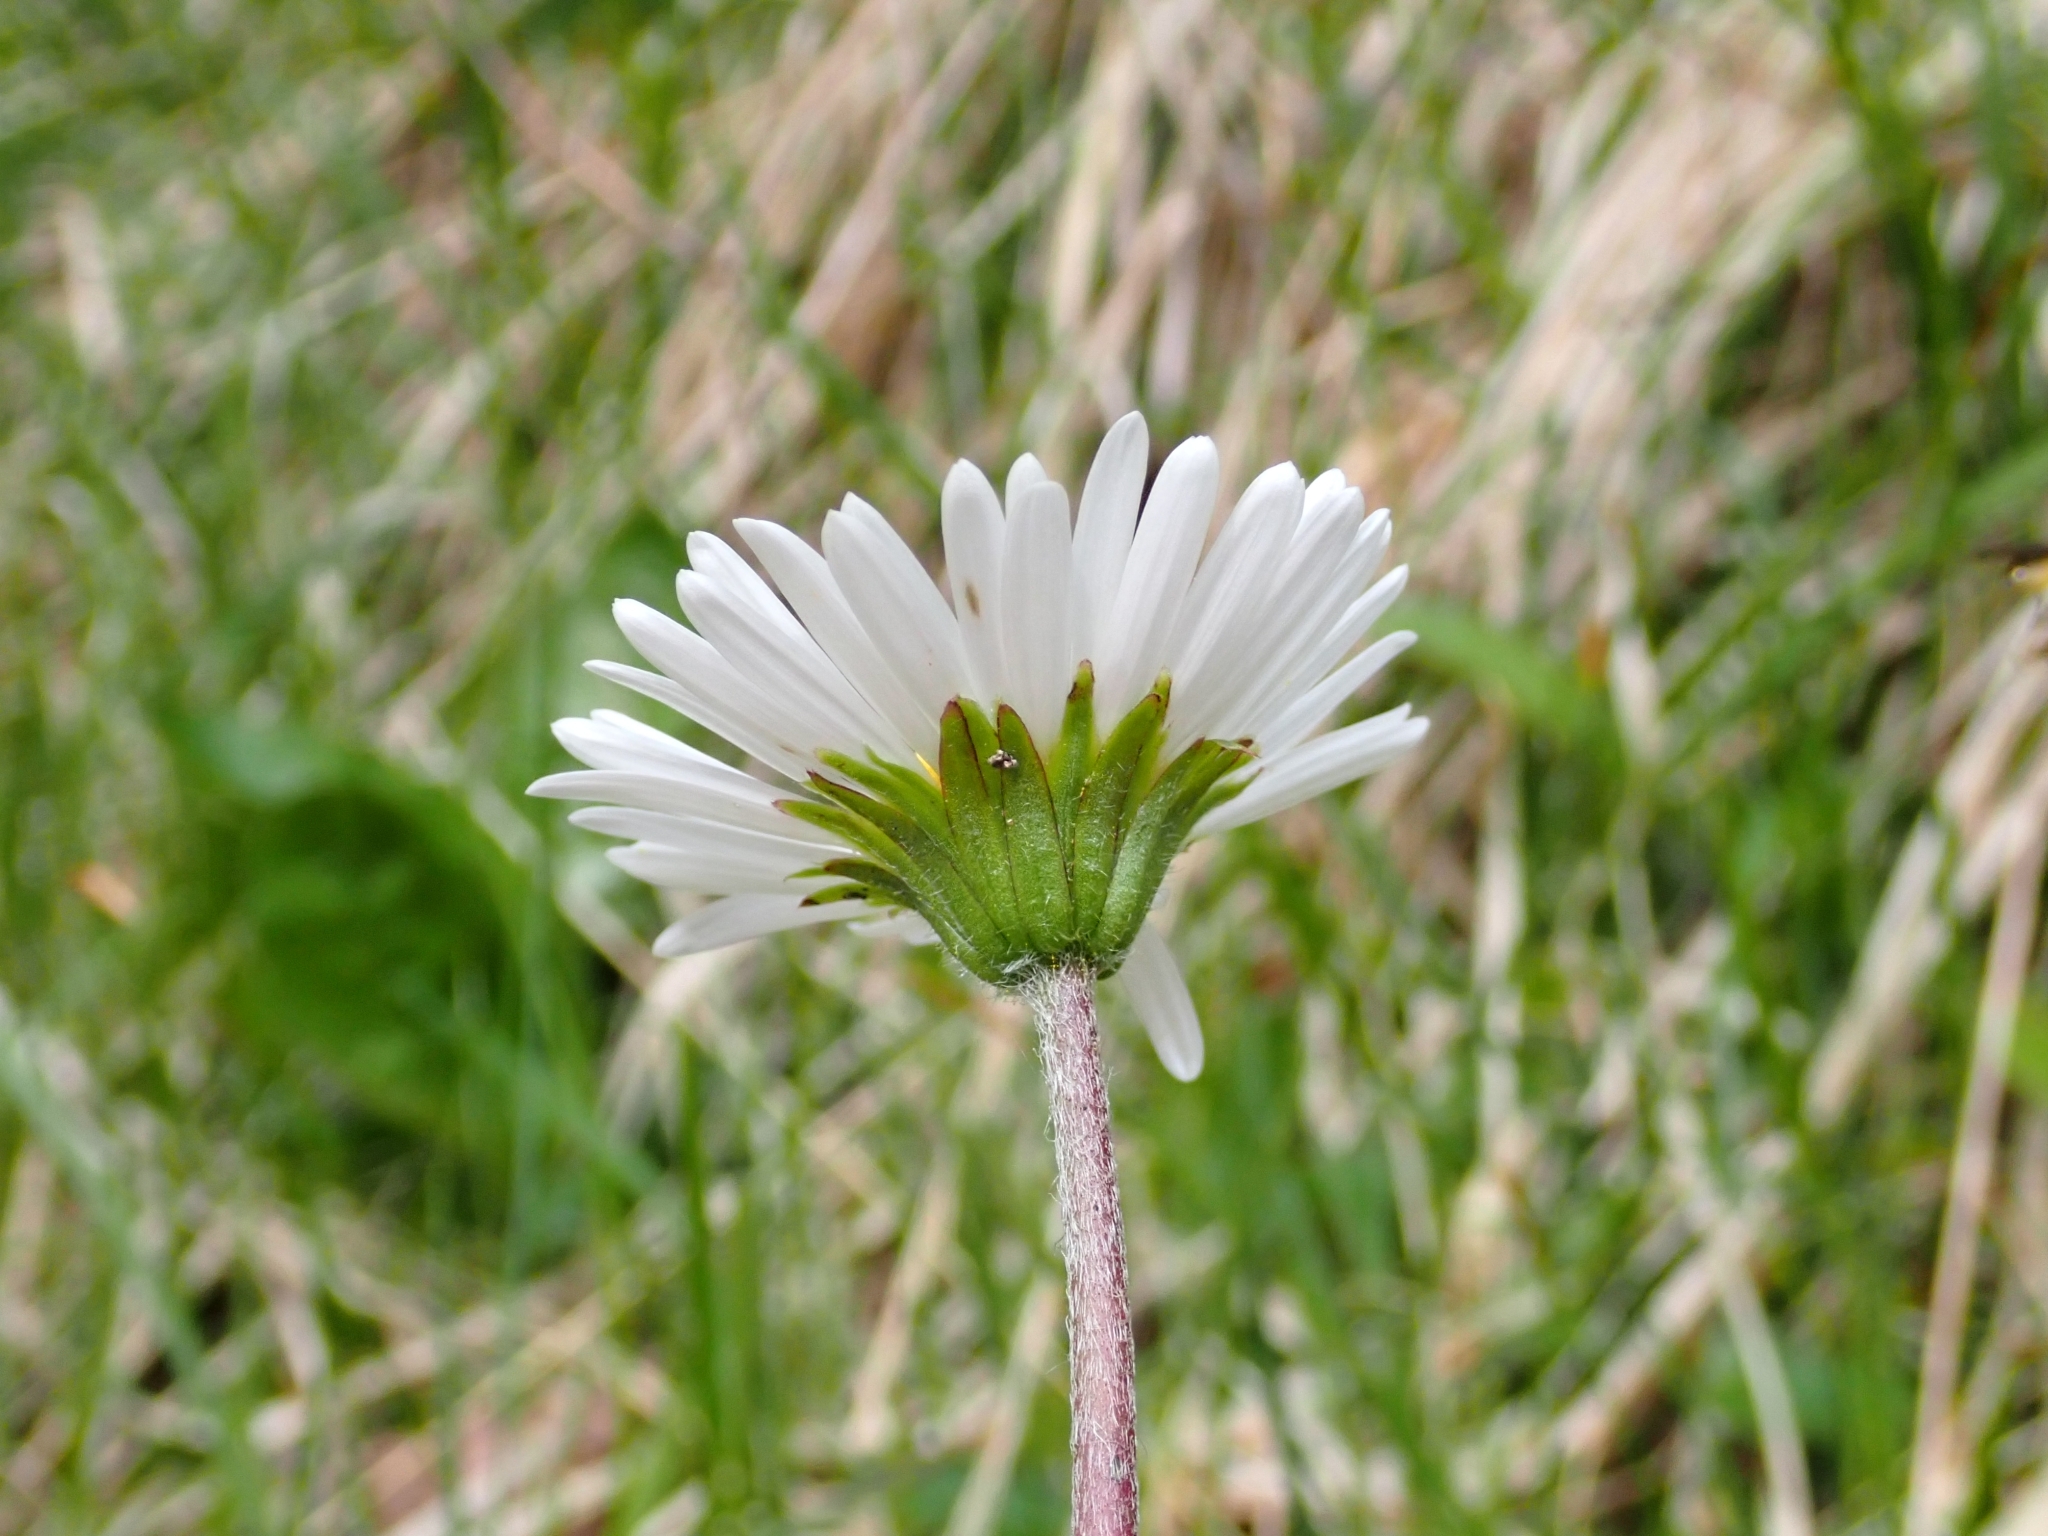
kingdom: Plantae
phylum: Tracheophyta
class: Magnoliopsida
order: Asterales
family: Asteraceae
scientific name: Asteraceae
